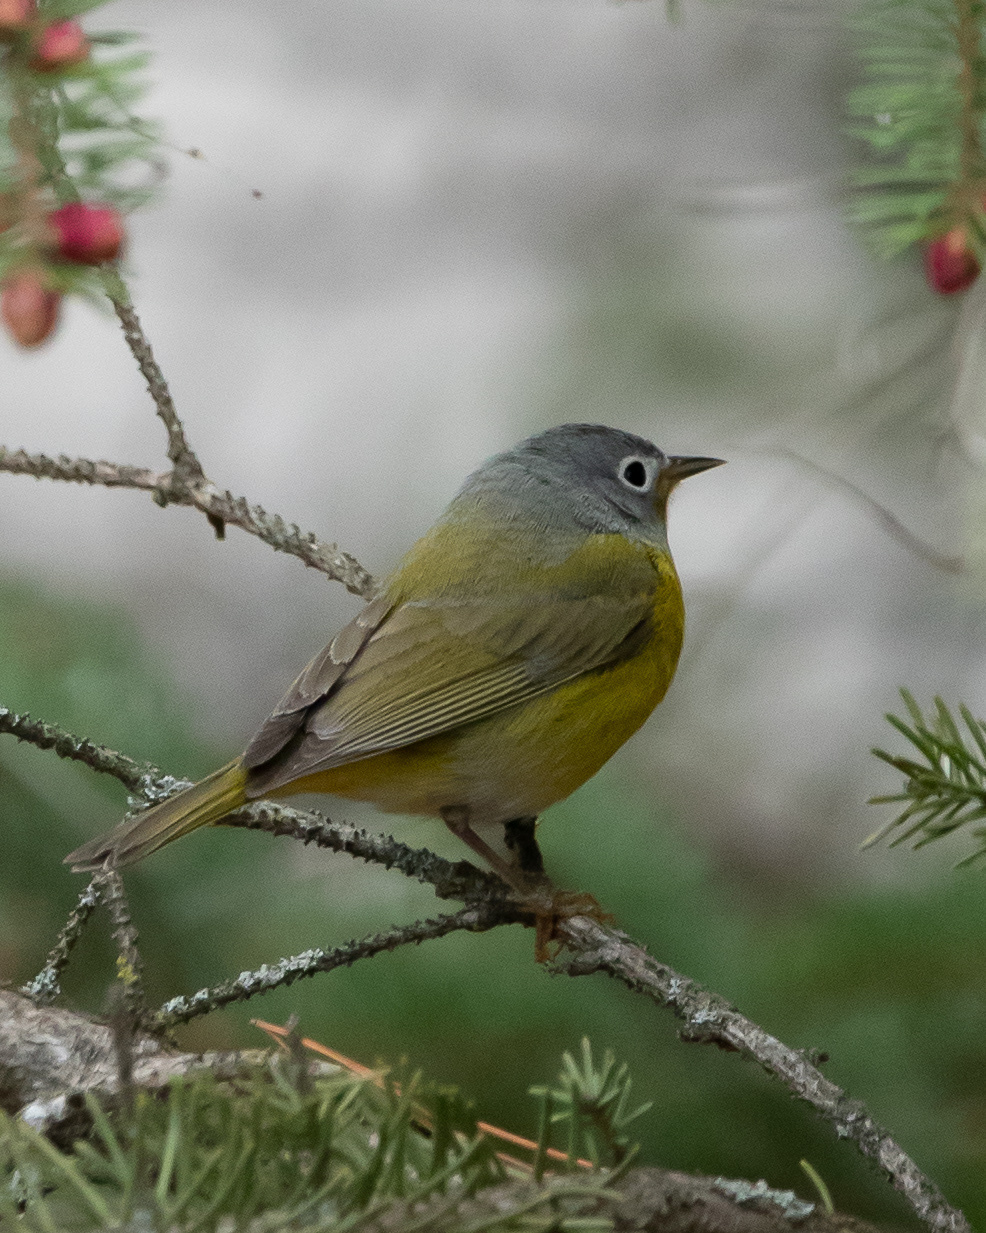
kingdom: Animalia
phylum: Chordata
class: Aves
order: Passeriformes
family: Parulidae
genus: Leiothlypis
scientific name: Leiothlypis ruficapilla
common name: Nashville warbler
